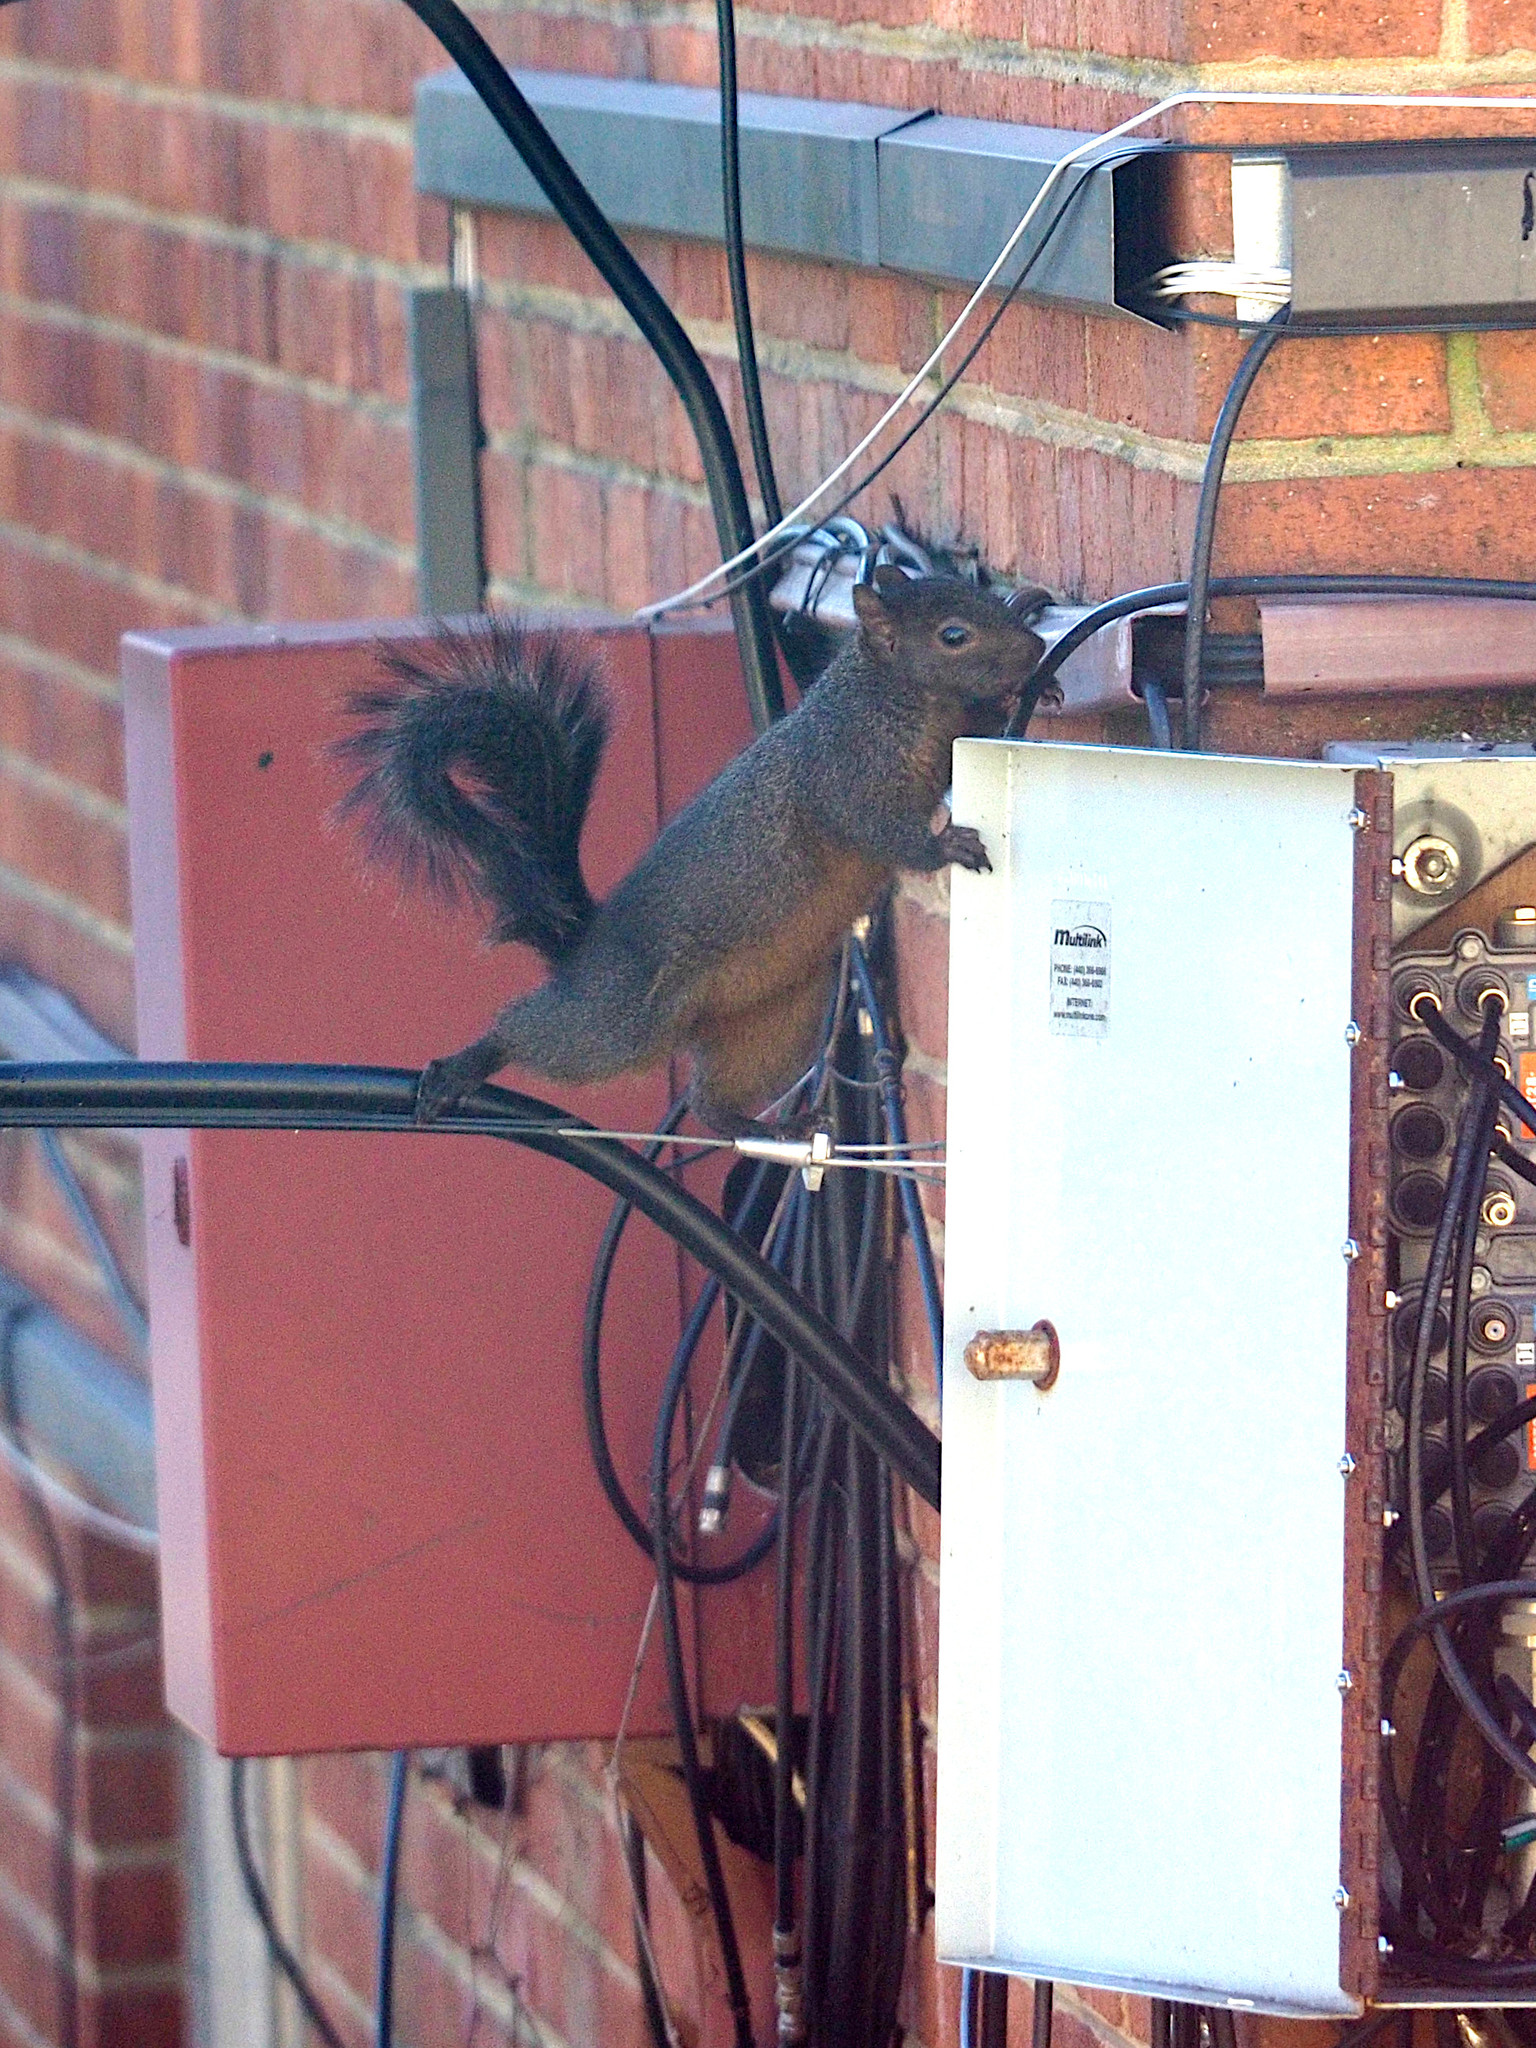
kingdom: Animalia
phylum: Chordata
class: Mammalia
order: Rodentia
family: Sciuridae
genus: Sciurus
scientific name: Sciurus carolinensis
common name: Eastern gray squirrel
